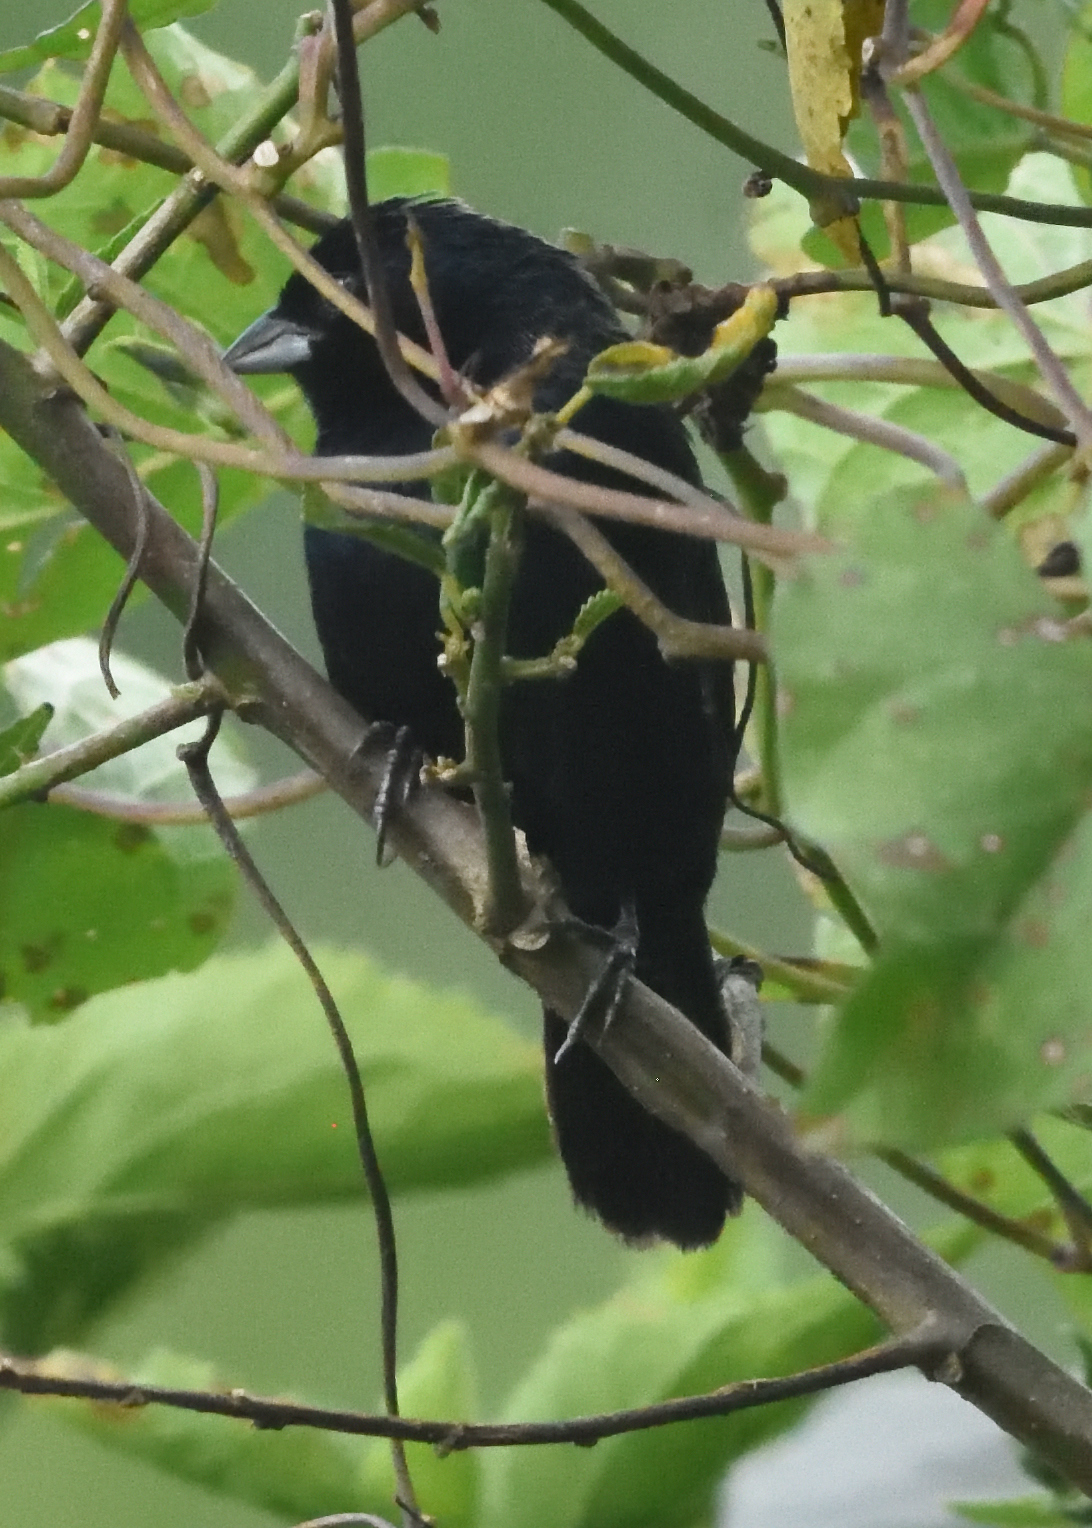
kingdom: Animalia
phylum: Chordata
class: Aves
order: Passeriformes
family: Thraupidae
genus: Volatinia
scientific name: Volatinia jacarina
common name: Blue-black grassquit
